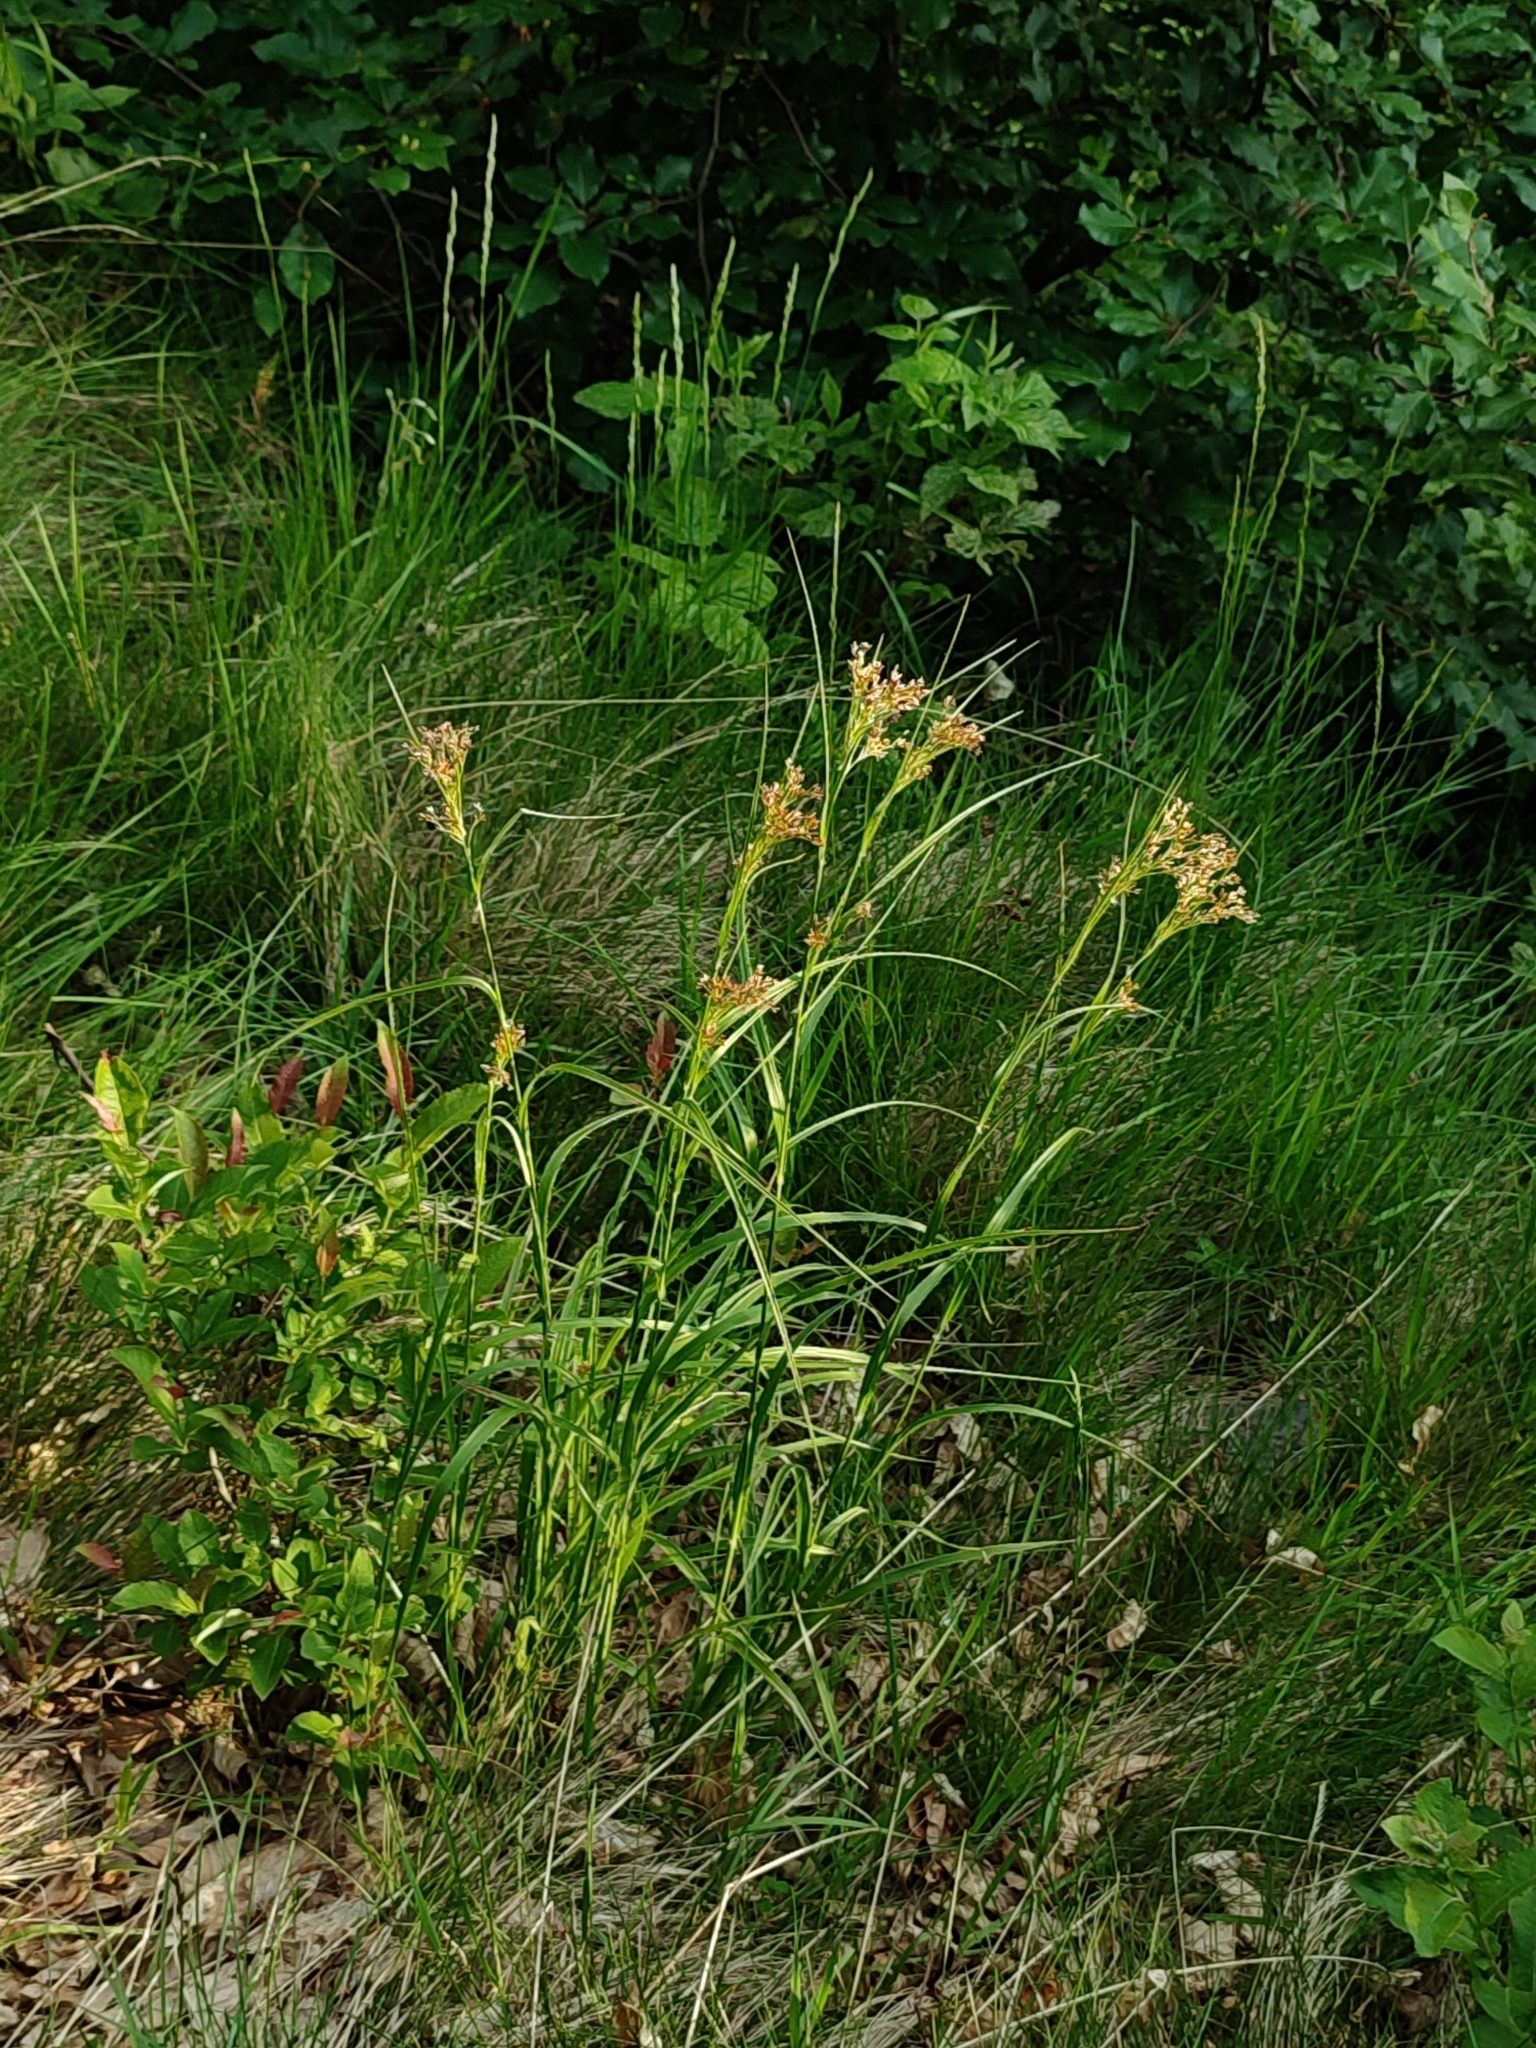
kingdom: Plantae
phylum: Tracheophyta
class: Liliopsida
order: Poales
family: Juncaceae
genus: Luzula
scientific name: Luzula luzuloides
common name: White wood-rush
